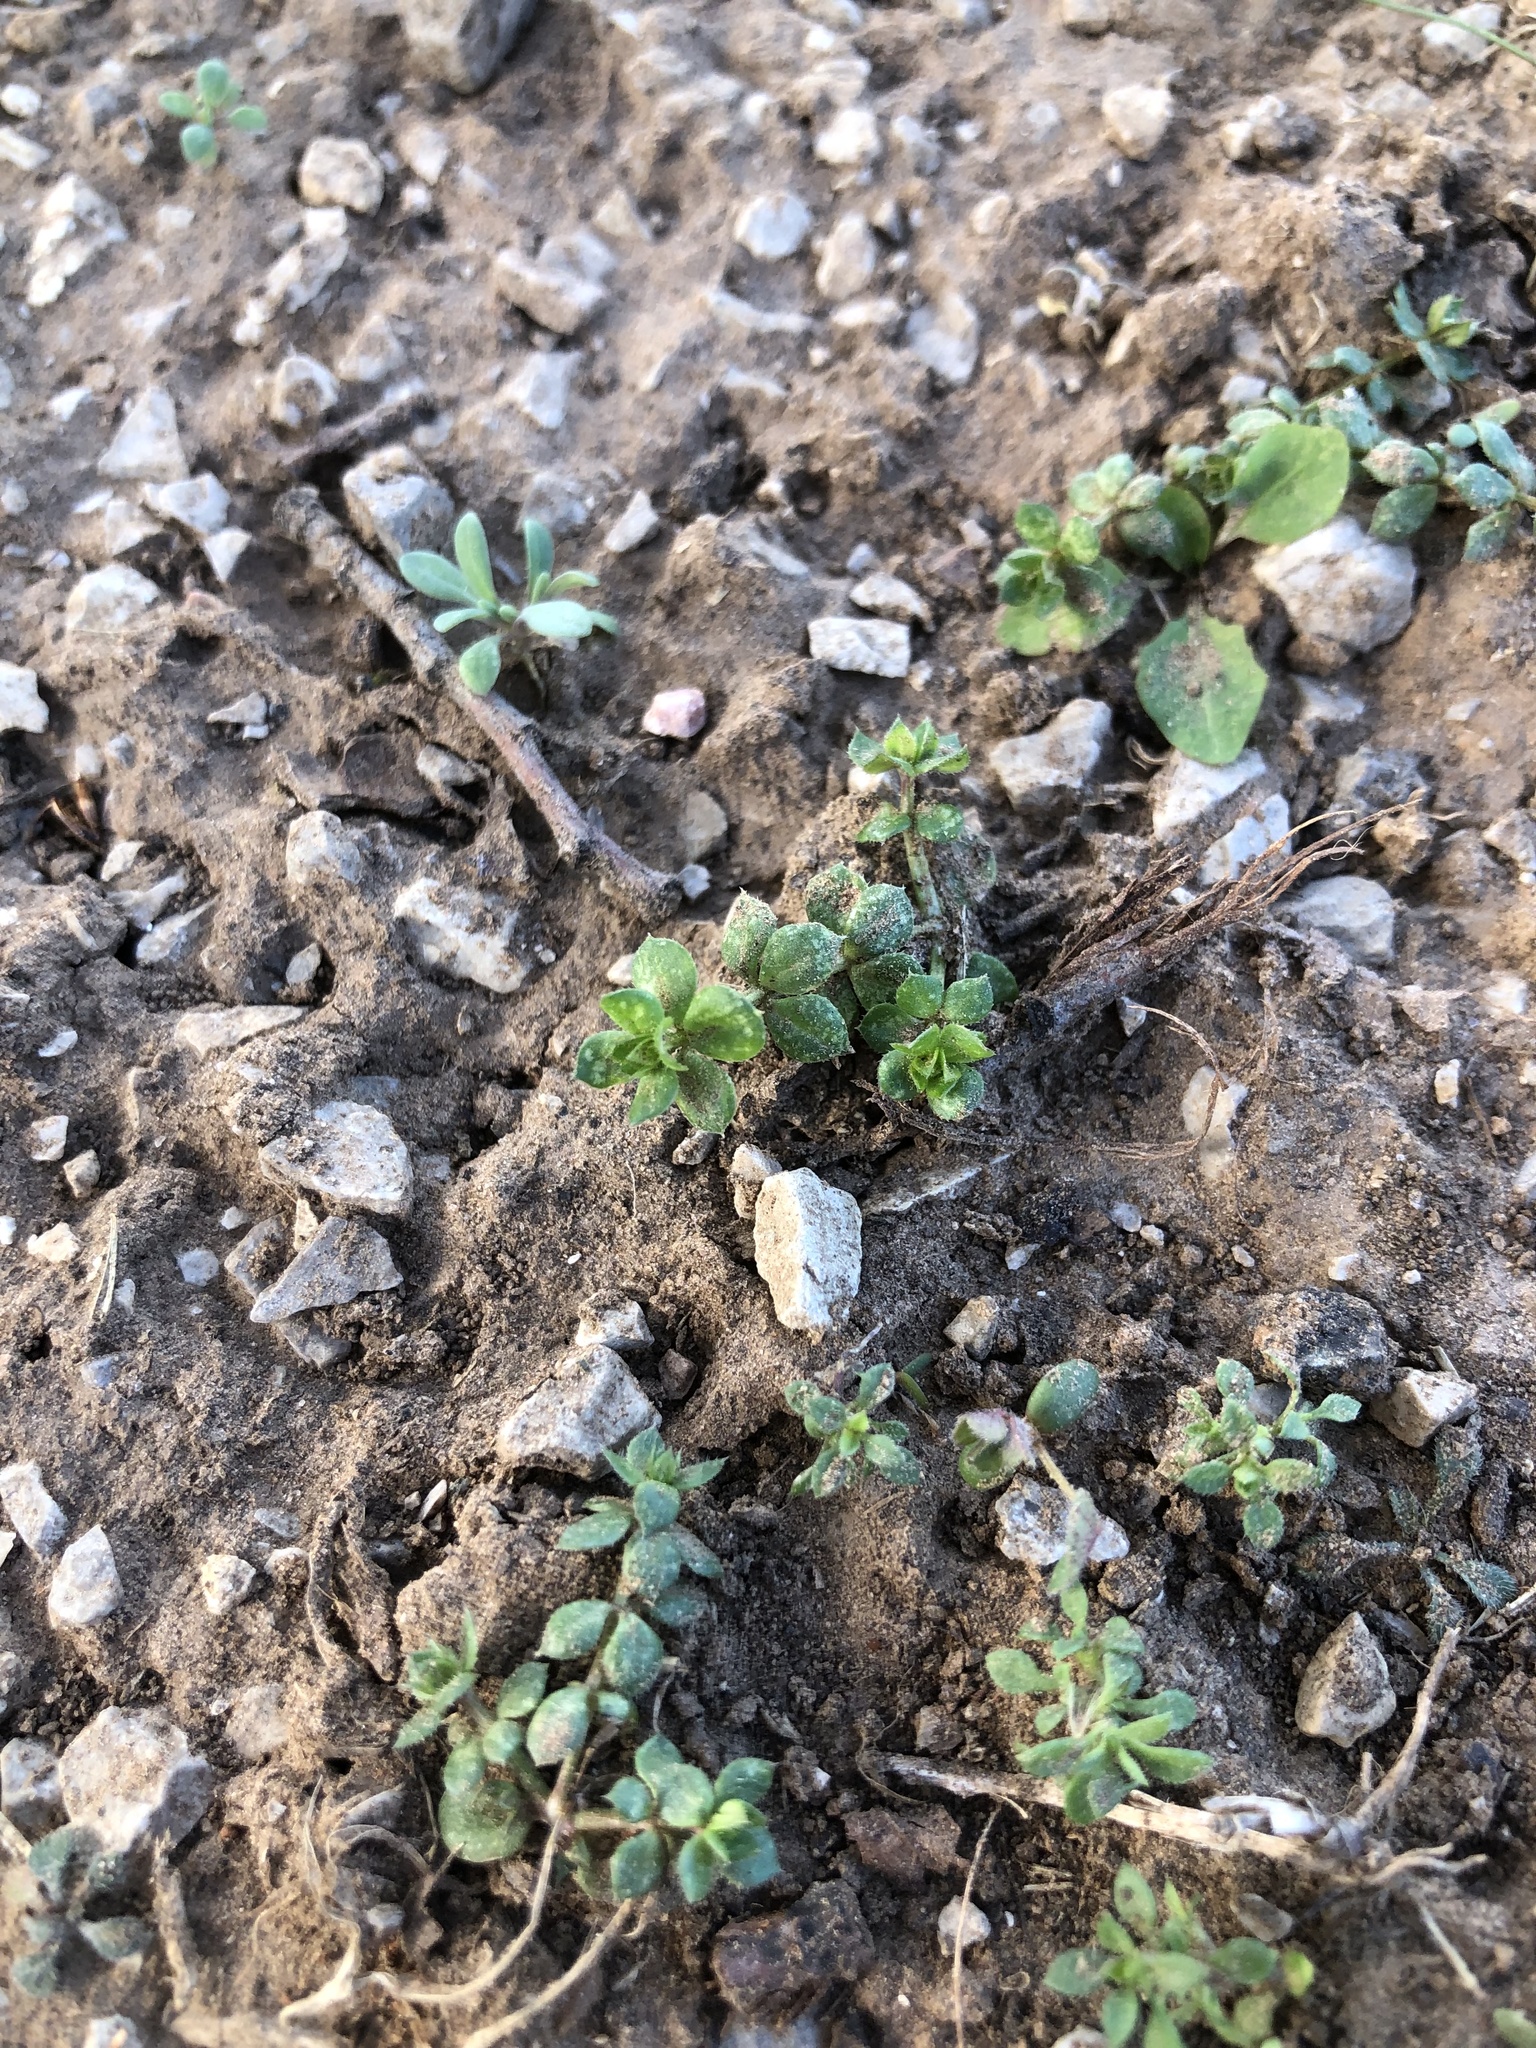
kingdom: Plantae
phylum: Tracheophyta
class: Magnoliopsida
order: Gentianales
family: Rubiaceae
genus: Sherardia
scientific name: Sherardia arvensis
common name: Field madder
